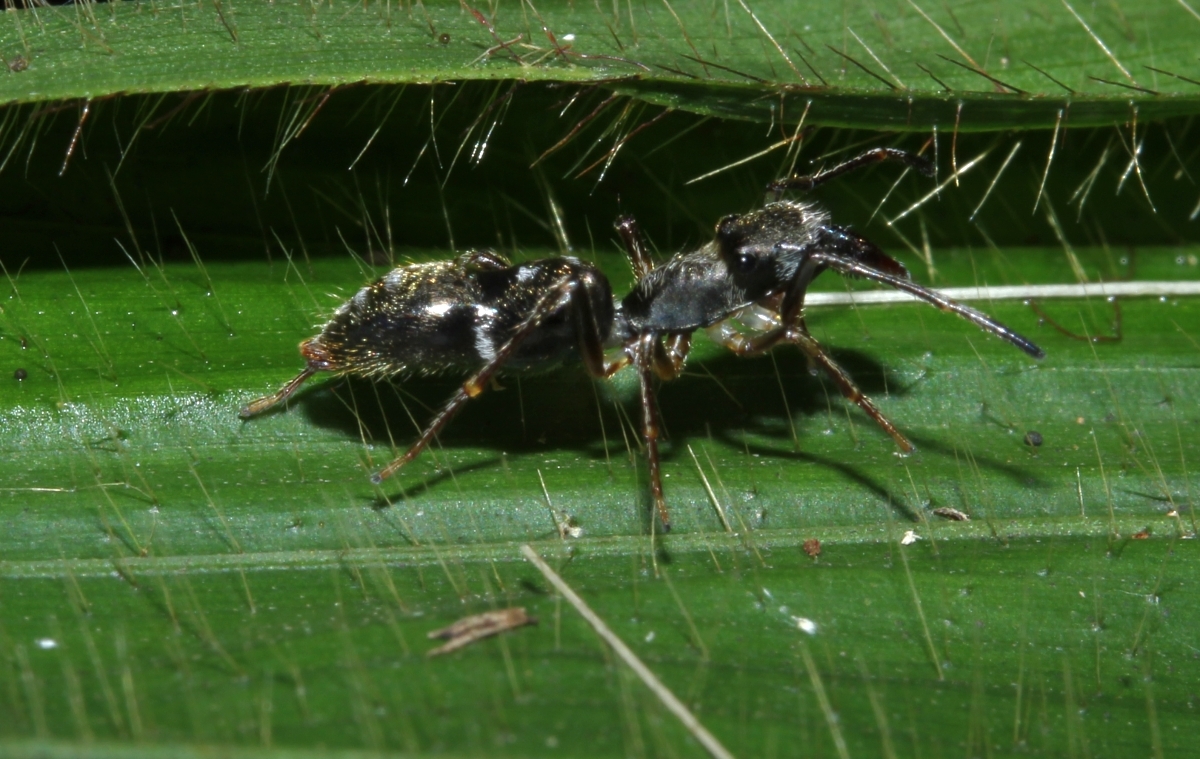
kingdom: Animalia
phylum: Arthropoda
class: Arachnida
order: Araneae
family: Salticidae
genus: Sarinda
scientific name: Sarinda
